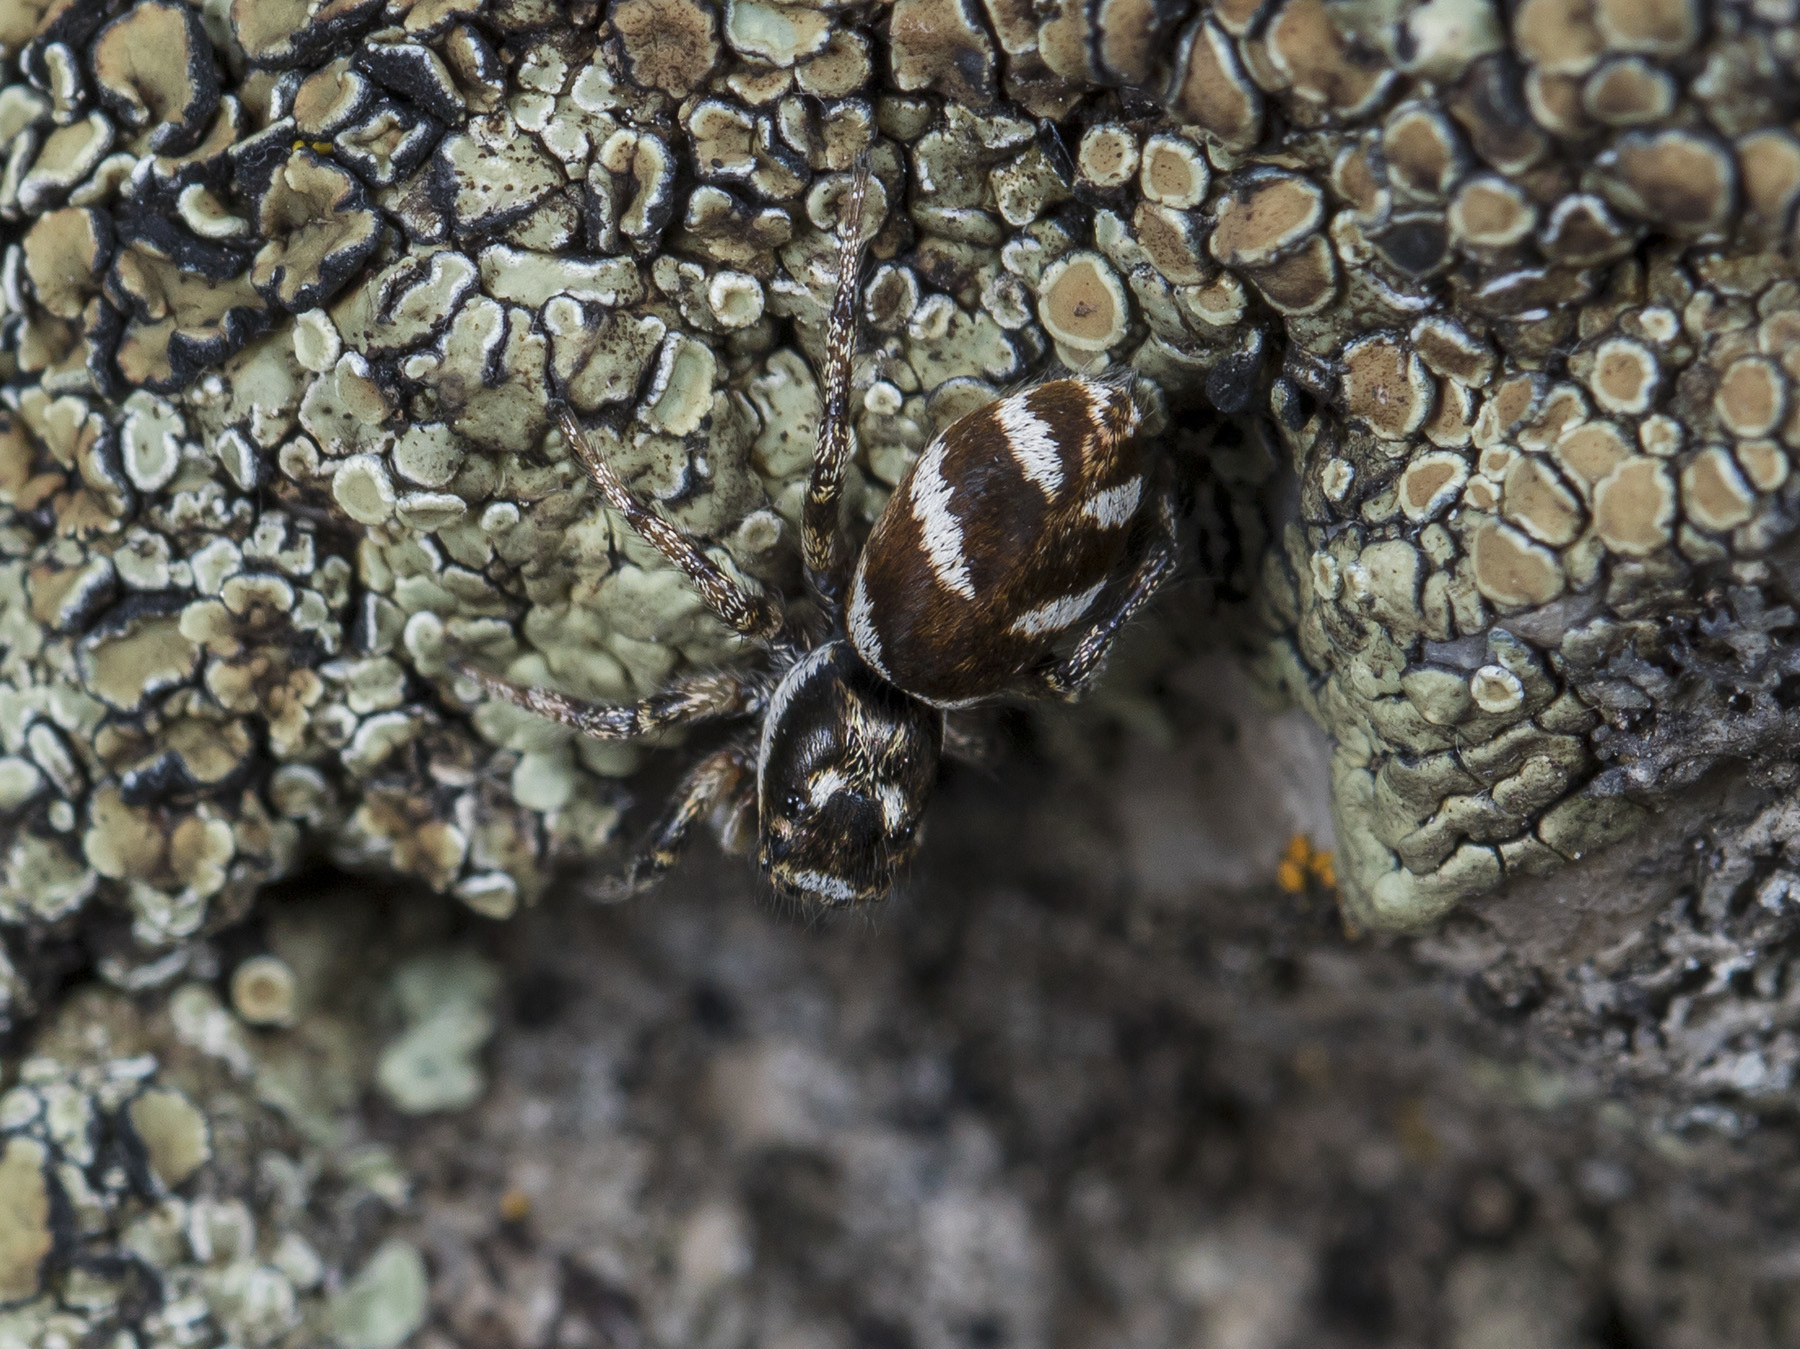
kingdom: Animalia
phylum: Arthropoda
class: Arachnida
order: Araneae
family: Salticidae
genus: Salticus
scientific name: Salticus scenicus
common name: Zebra jumper
